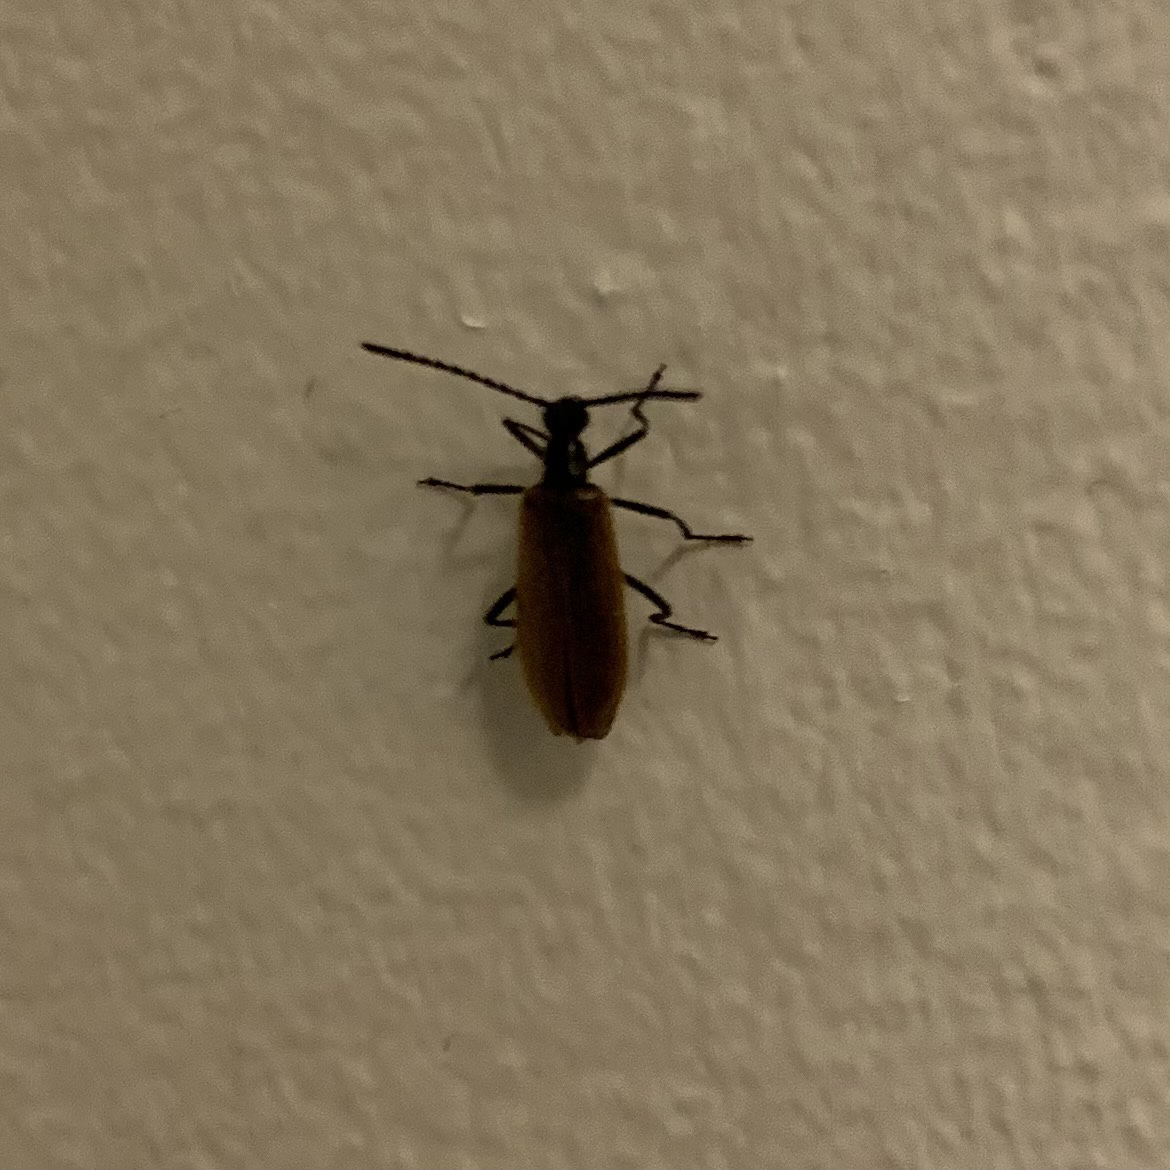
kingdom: Animalia
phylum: Arthropoda
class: Insecta
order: Coleoptera
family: Tenebrionidae
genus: Lagria
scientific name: Lagria hirta
